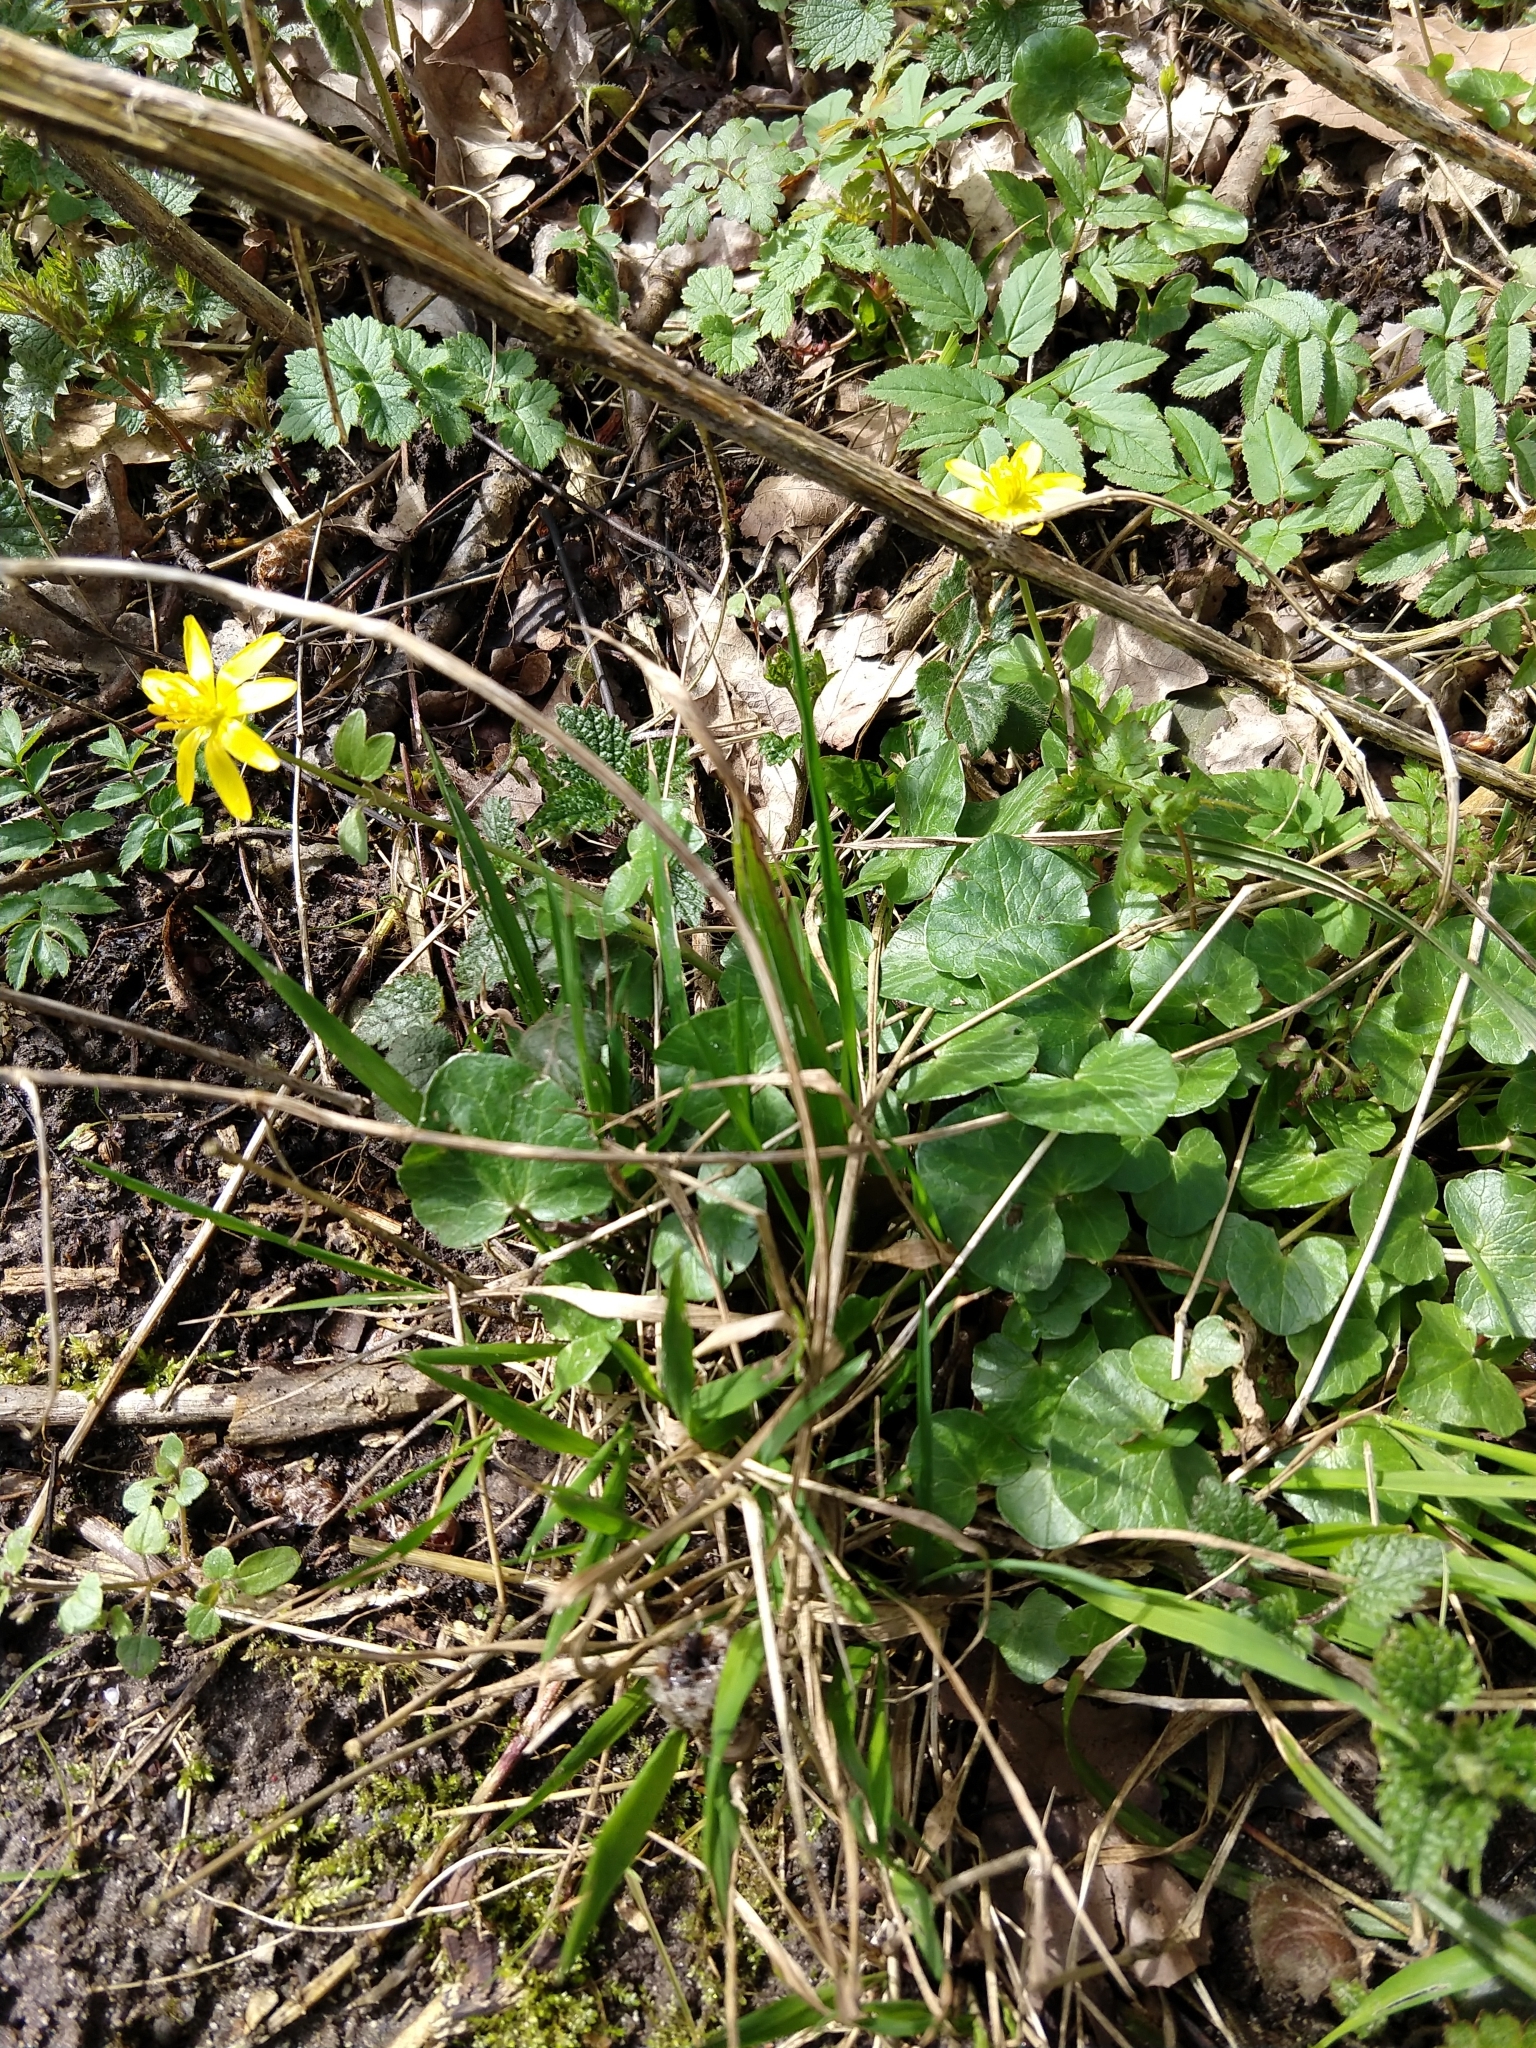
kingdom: Plantae
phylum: Tracheophyta
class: Magnoliopsida
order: Ranunculales
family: Ranunculaceae
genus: Ficaria
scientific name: Ficaria verna
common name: Lesser celandine
